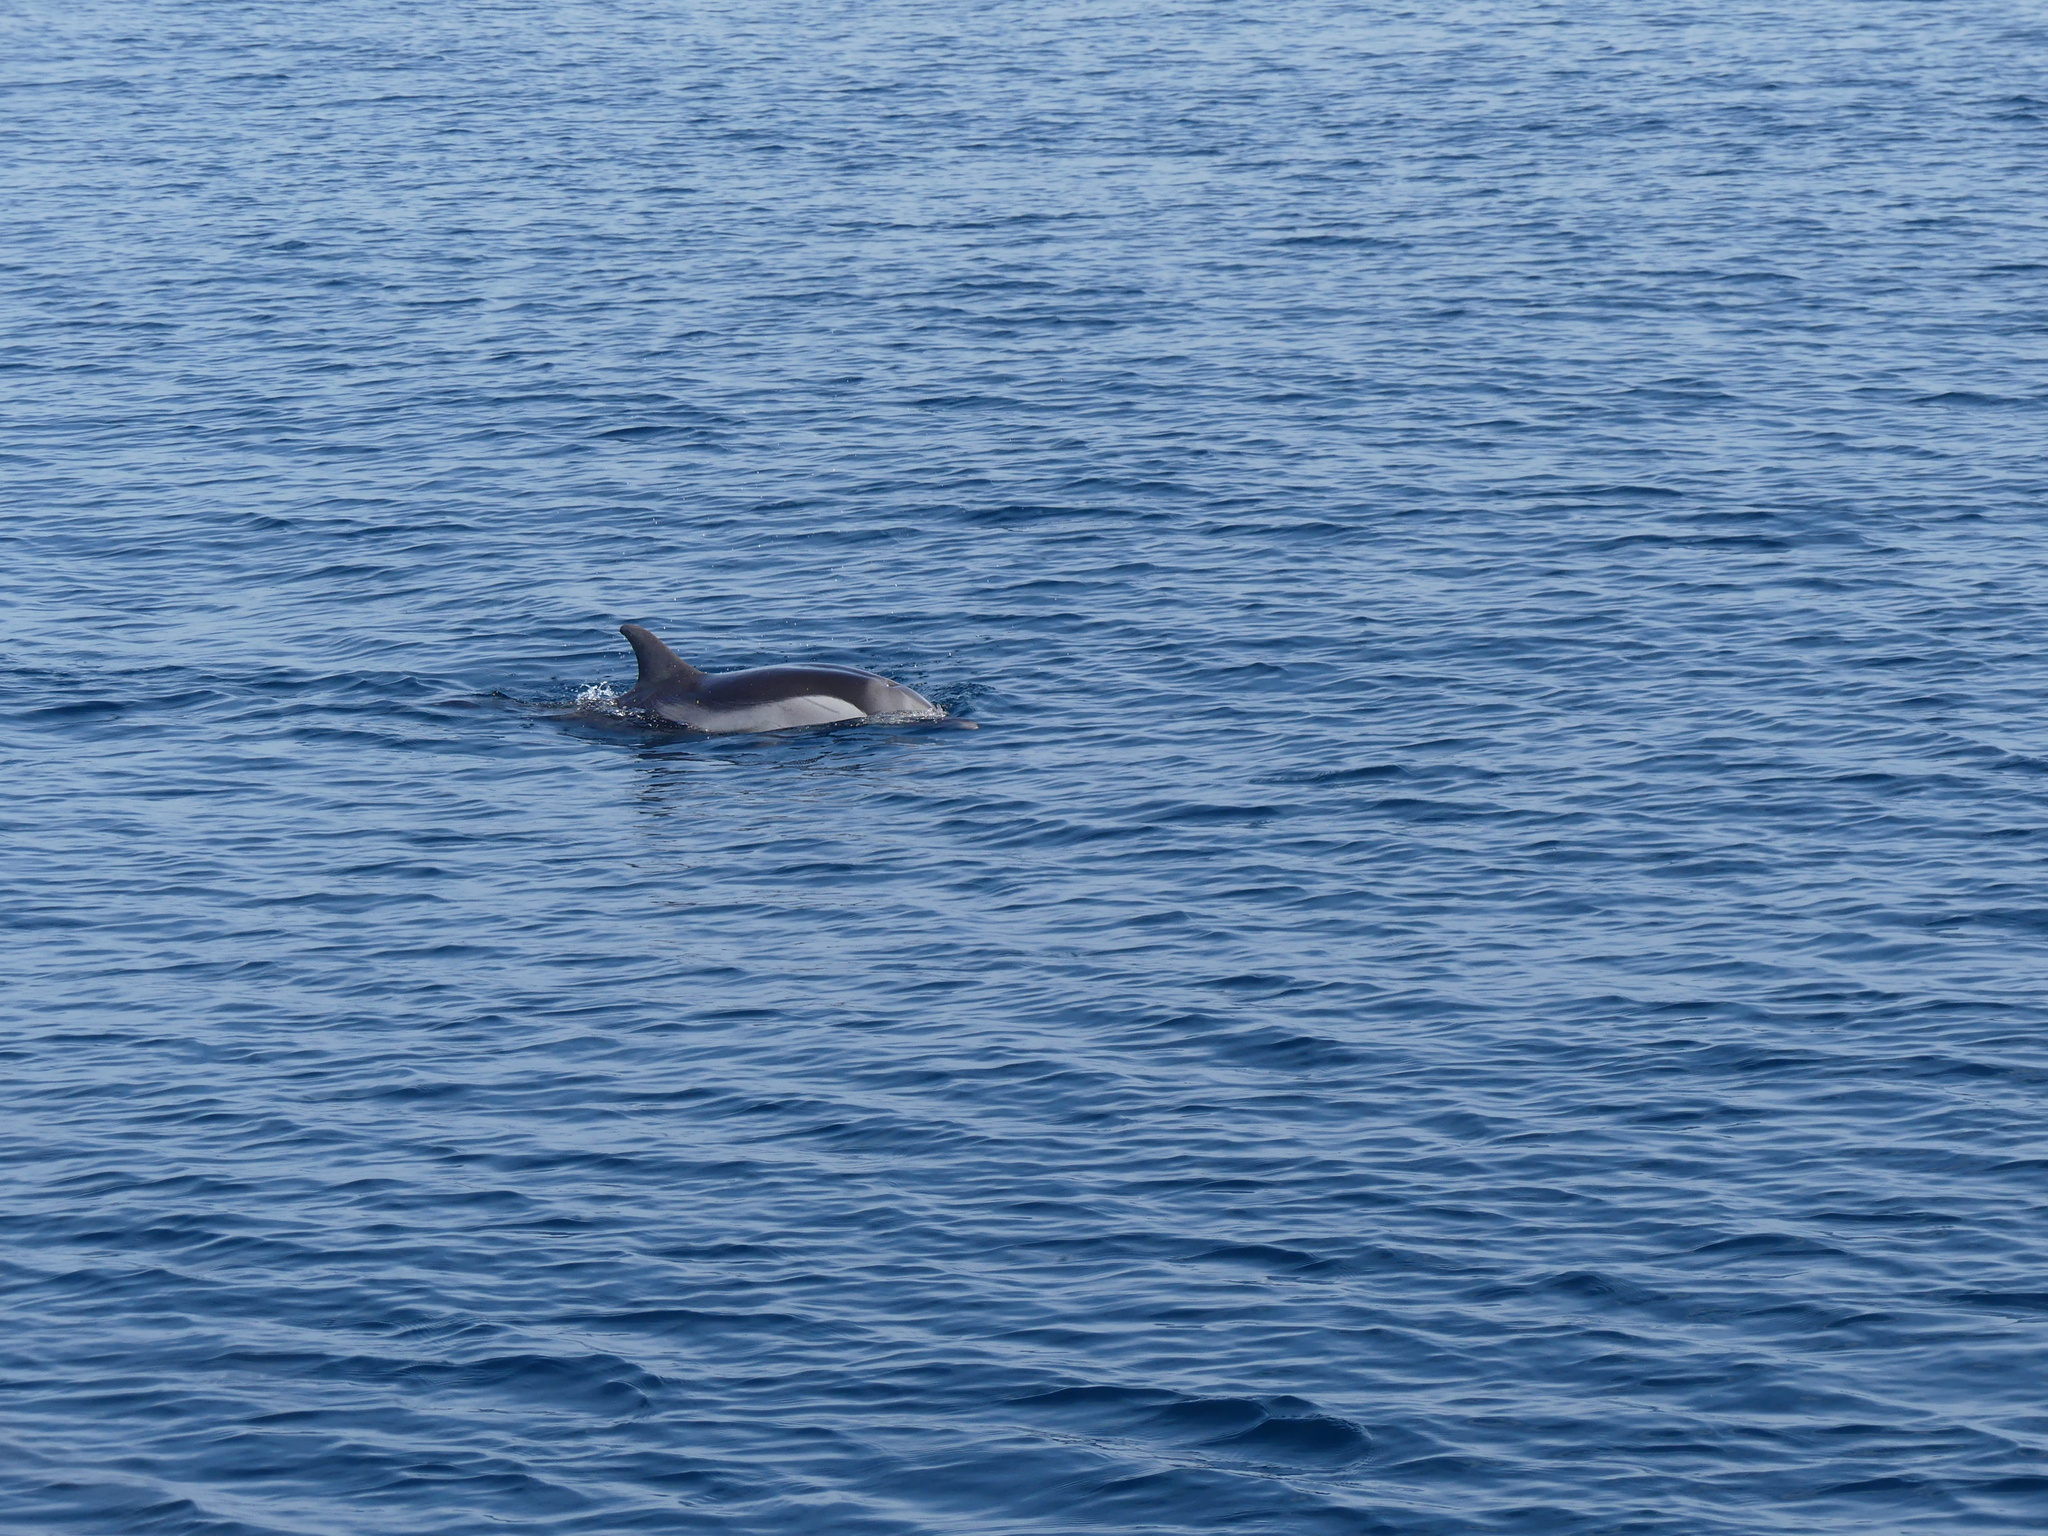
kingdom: Animalia
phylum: Chordata
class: Mammalia
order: Cetacea
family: Delphinidae
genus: Stenella
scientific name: Stenella coeruleoalba
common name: Striped dolphin
